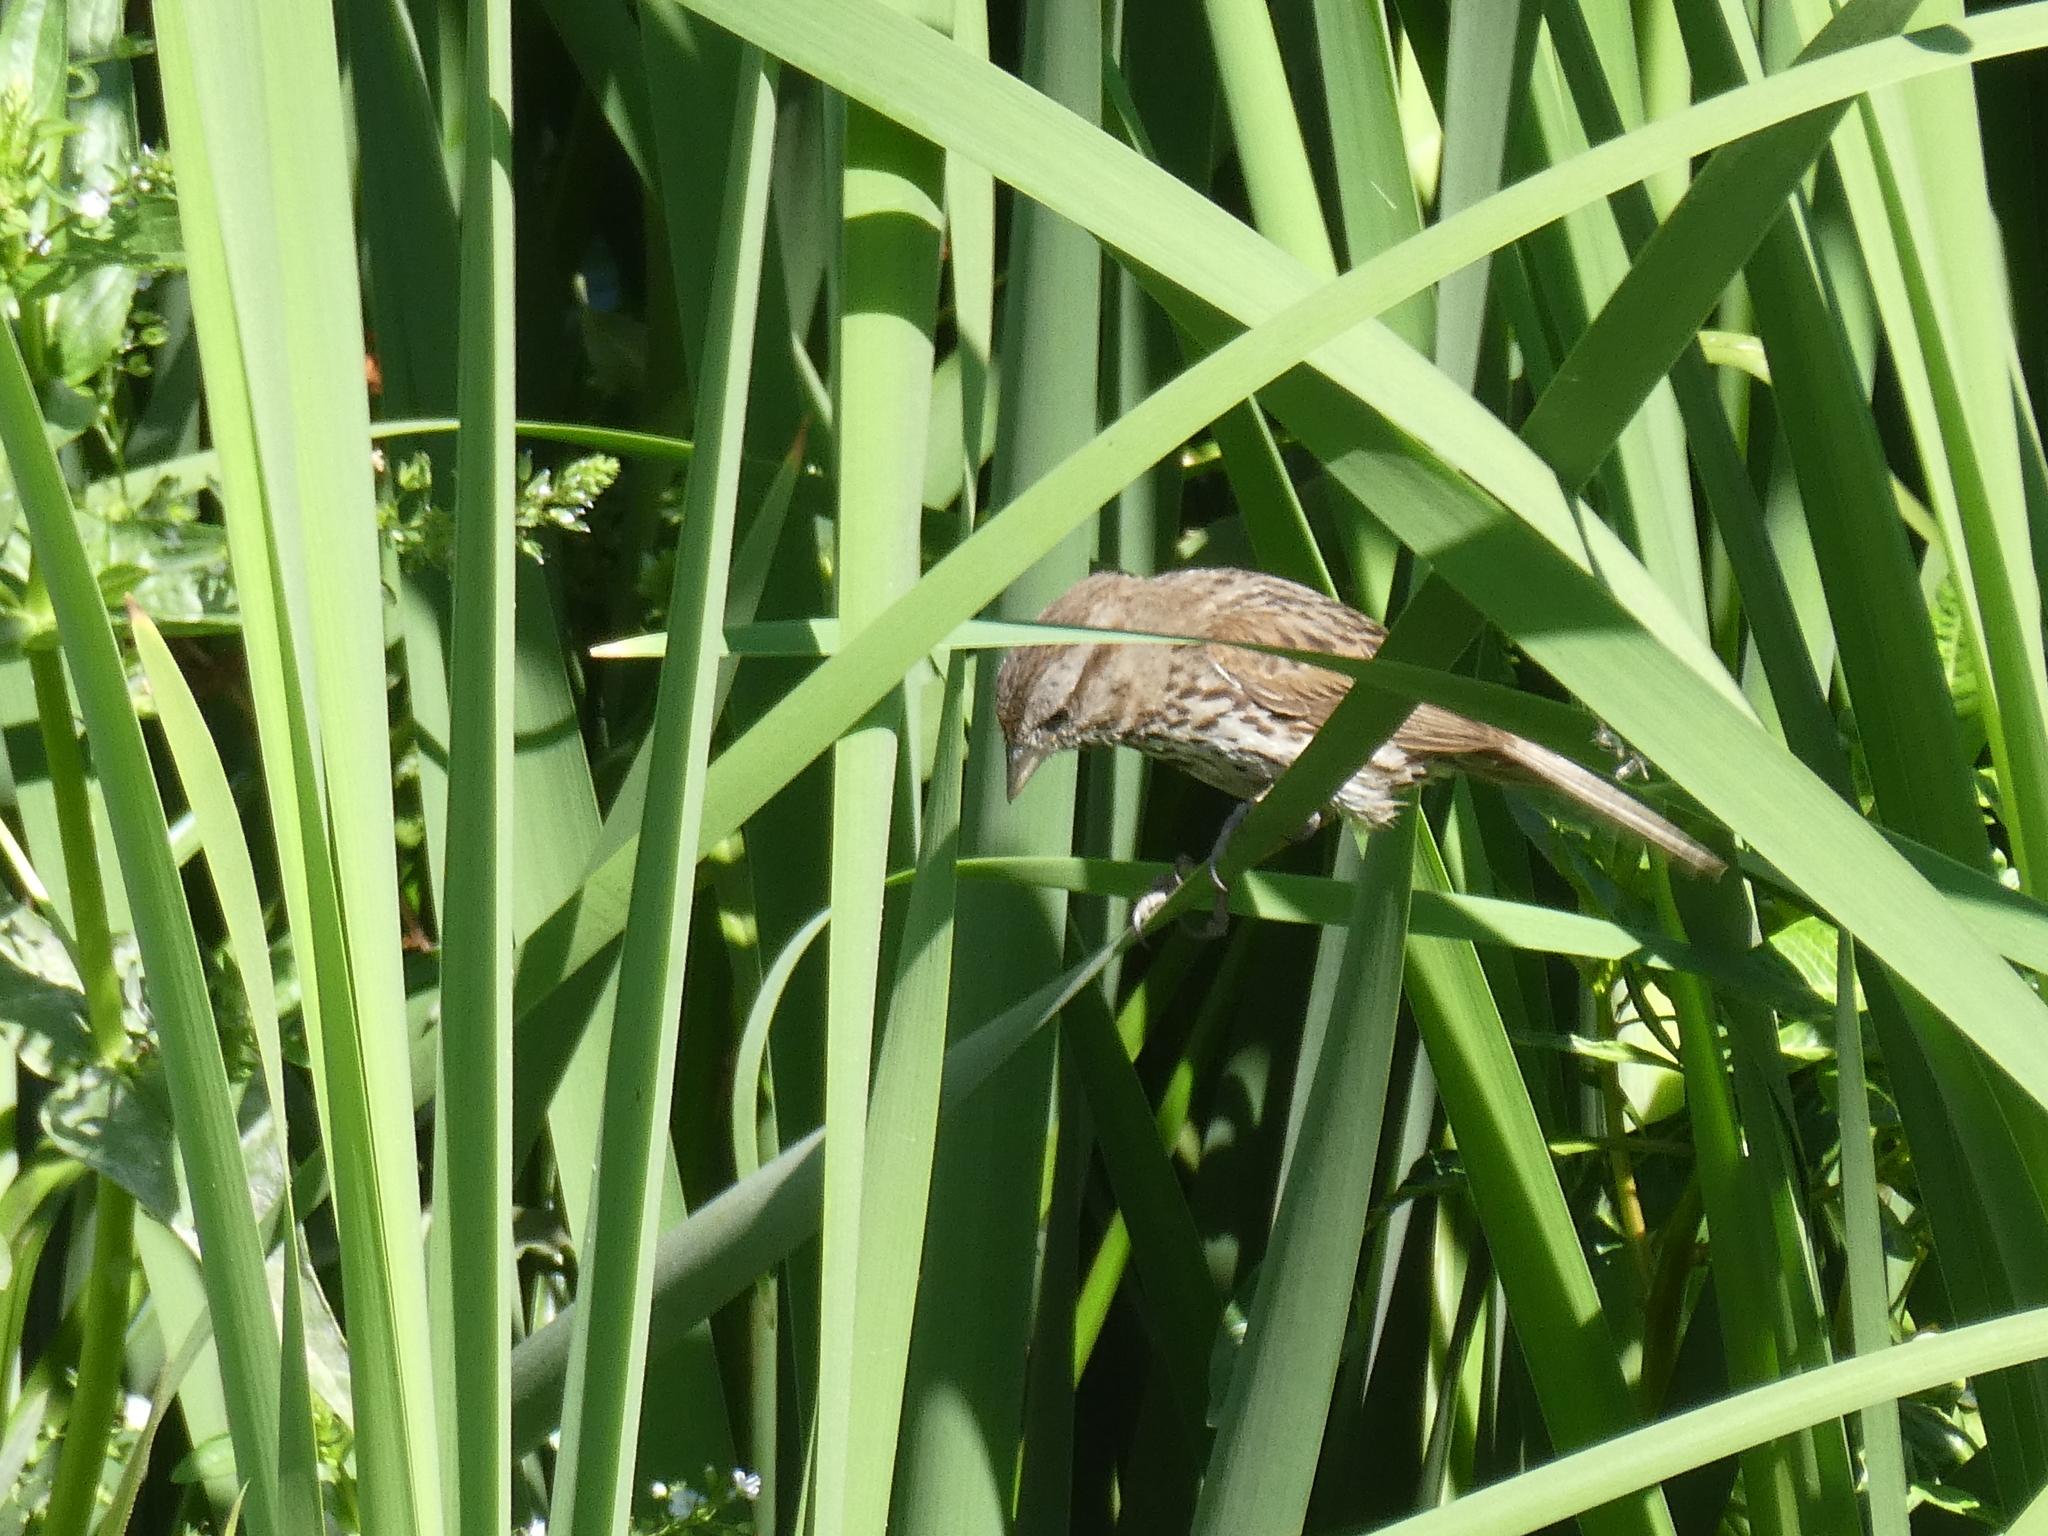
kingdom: Animalia
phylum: Chordata
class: Aves
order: Passeriformes
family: Passerellidae
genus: Melospiza
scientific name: Melospiza melodia
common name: Song sparrow
